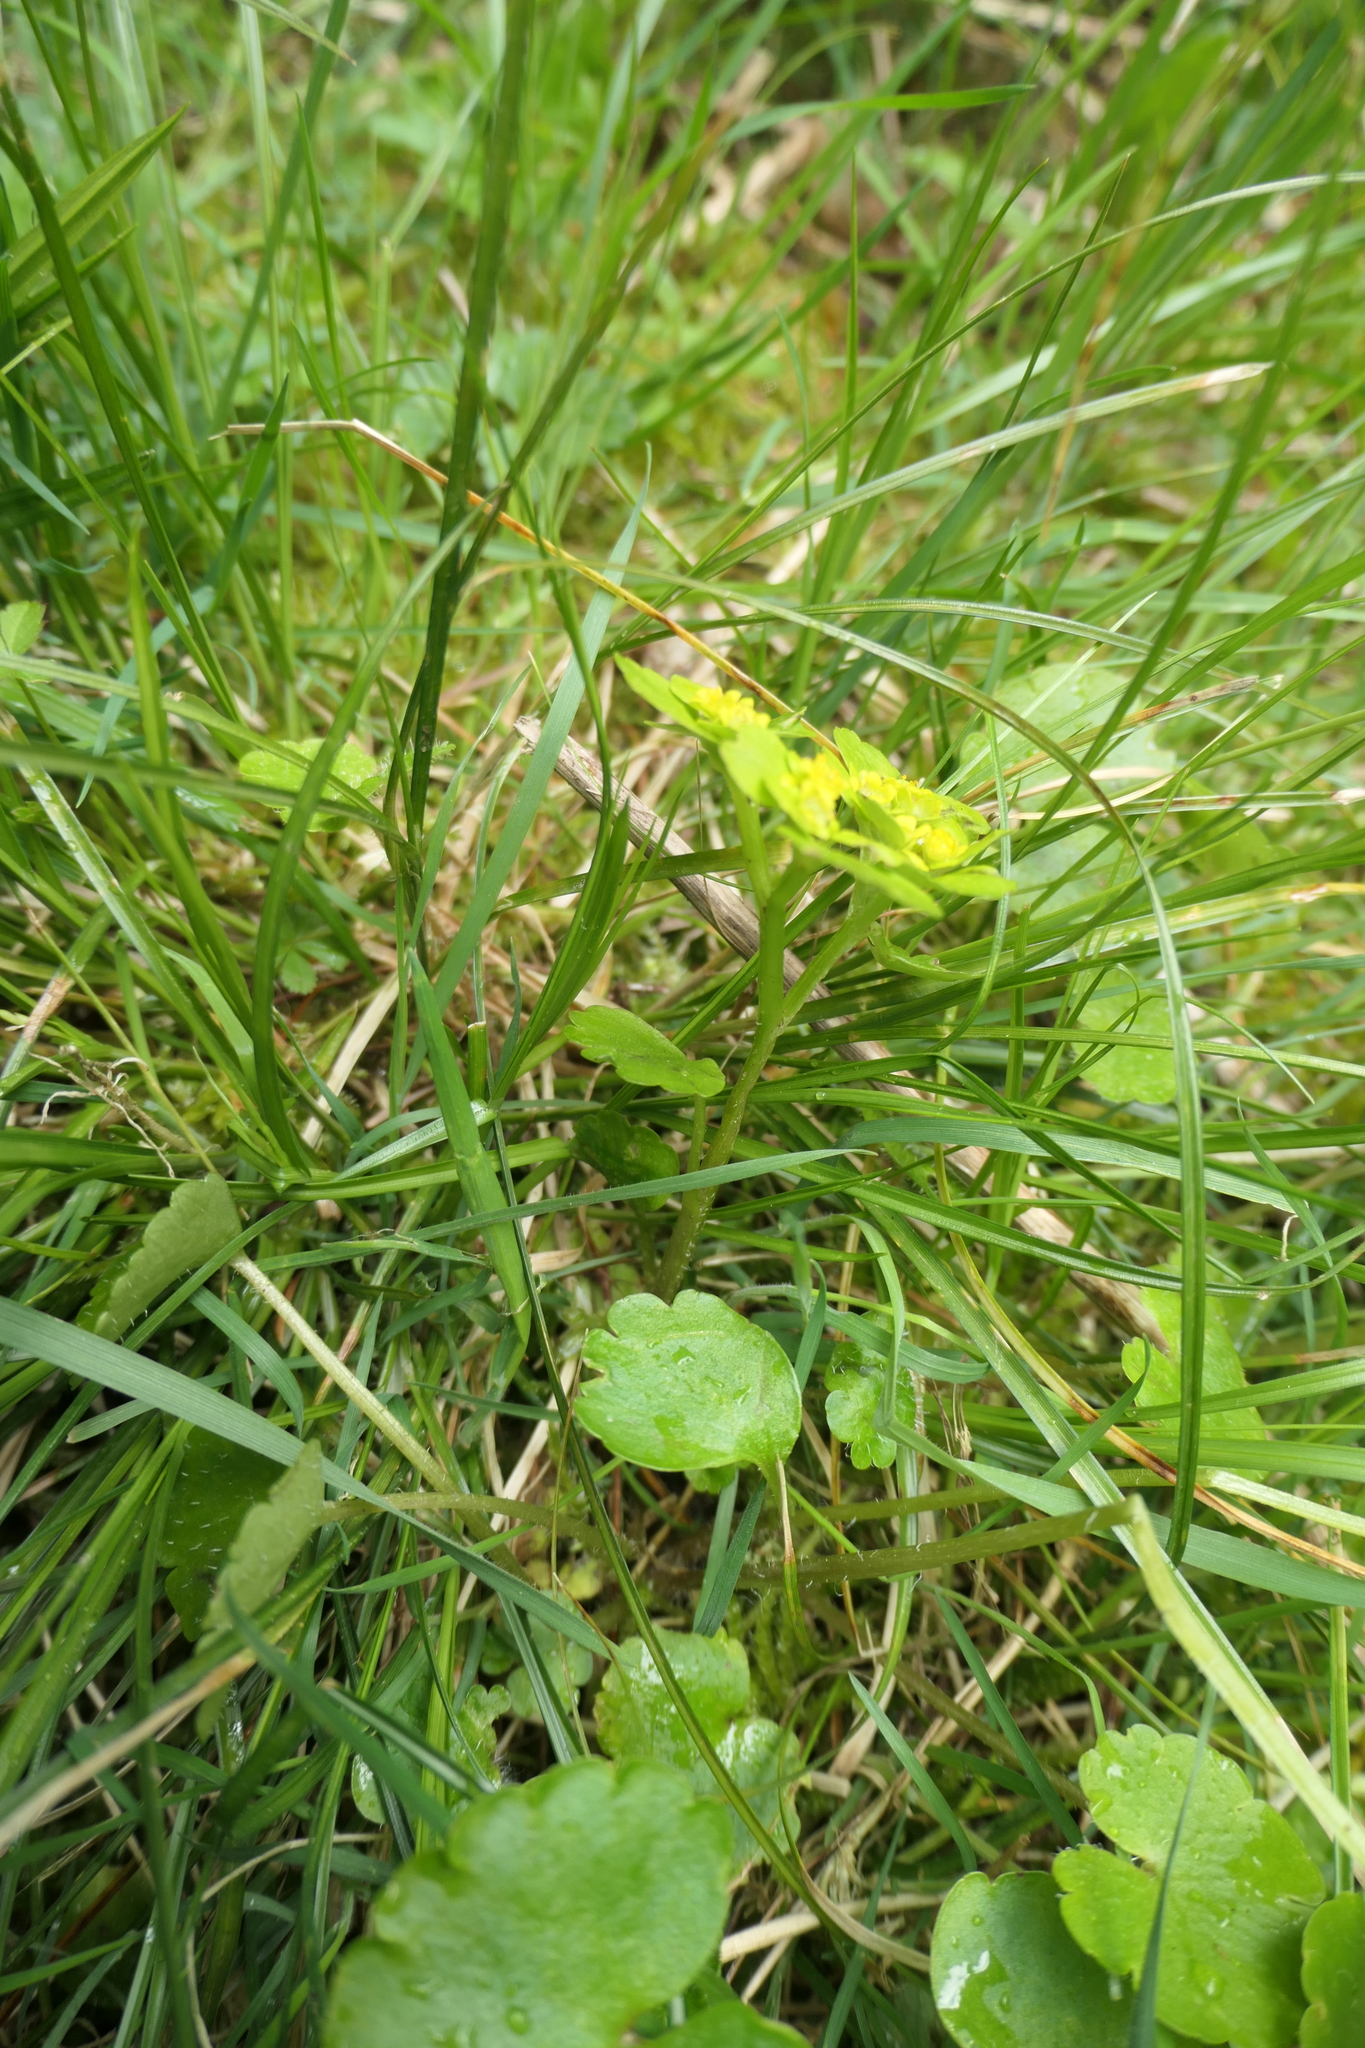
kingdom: Plantae
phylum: Tracheophyta
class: Magnoliopsida
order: Saxifragales
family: Saxifragaceae
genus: Chrysosplenium
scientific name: Chrysosplenium alternifolium
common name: Alternate-leaved golden-saxifrage
